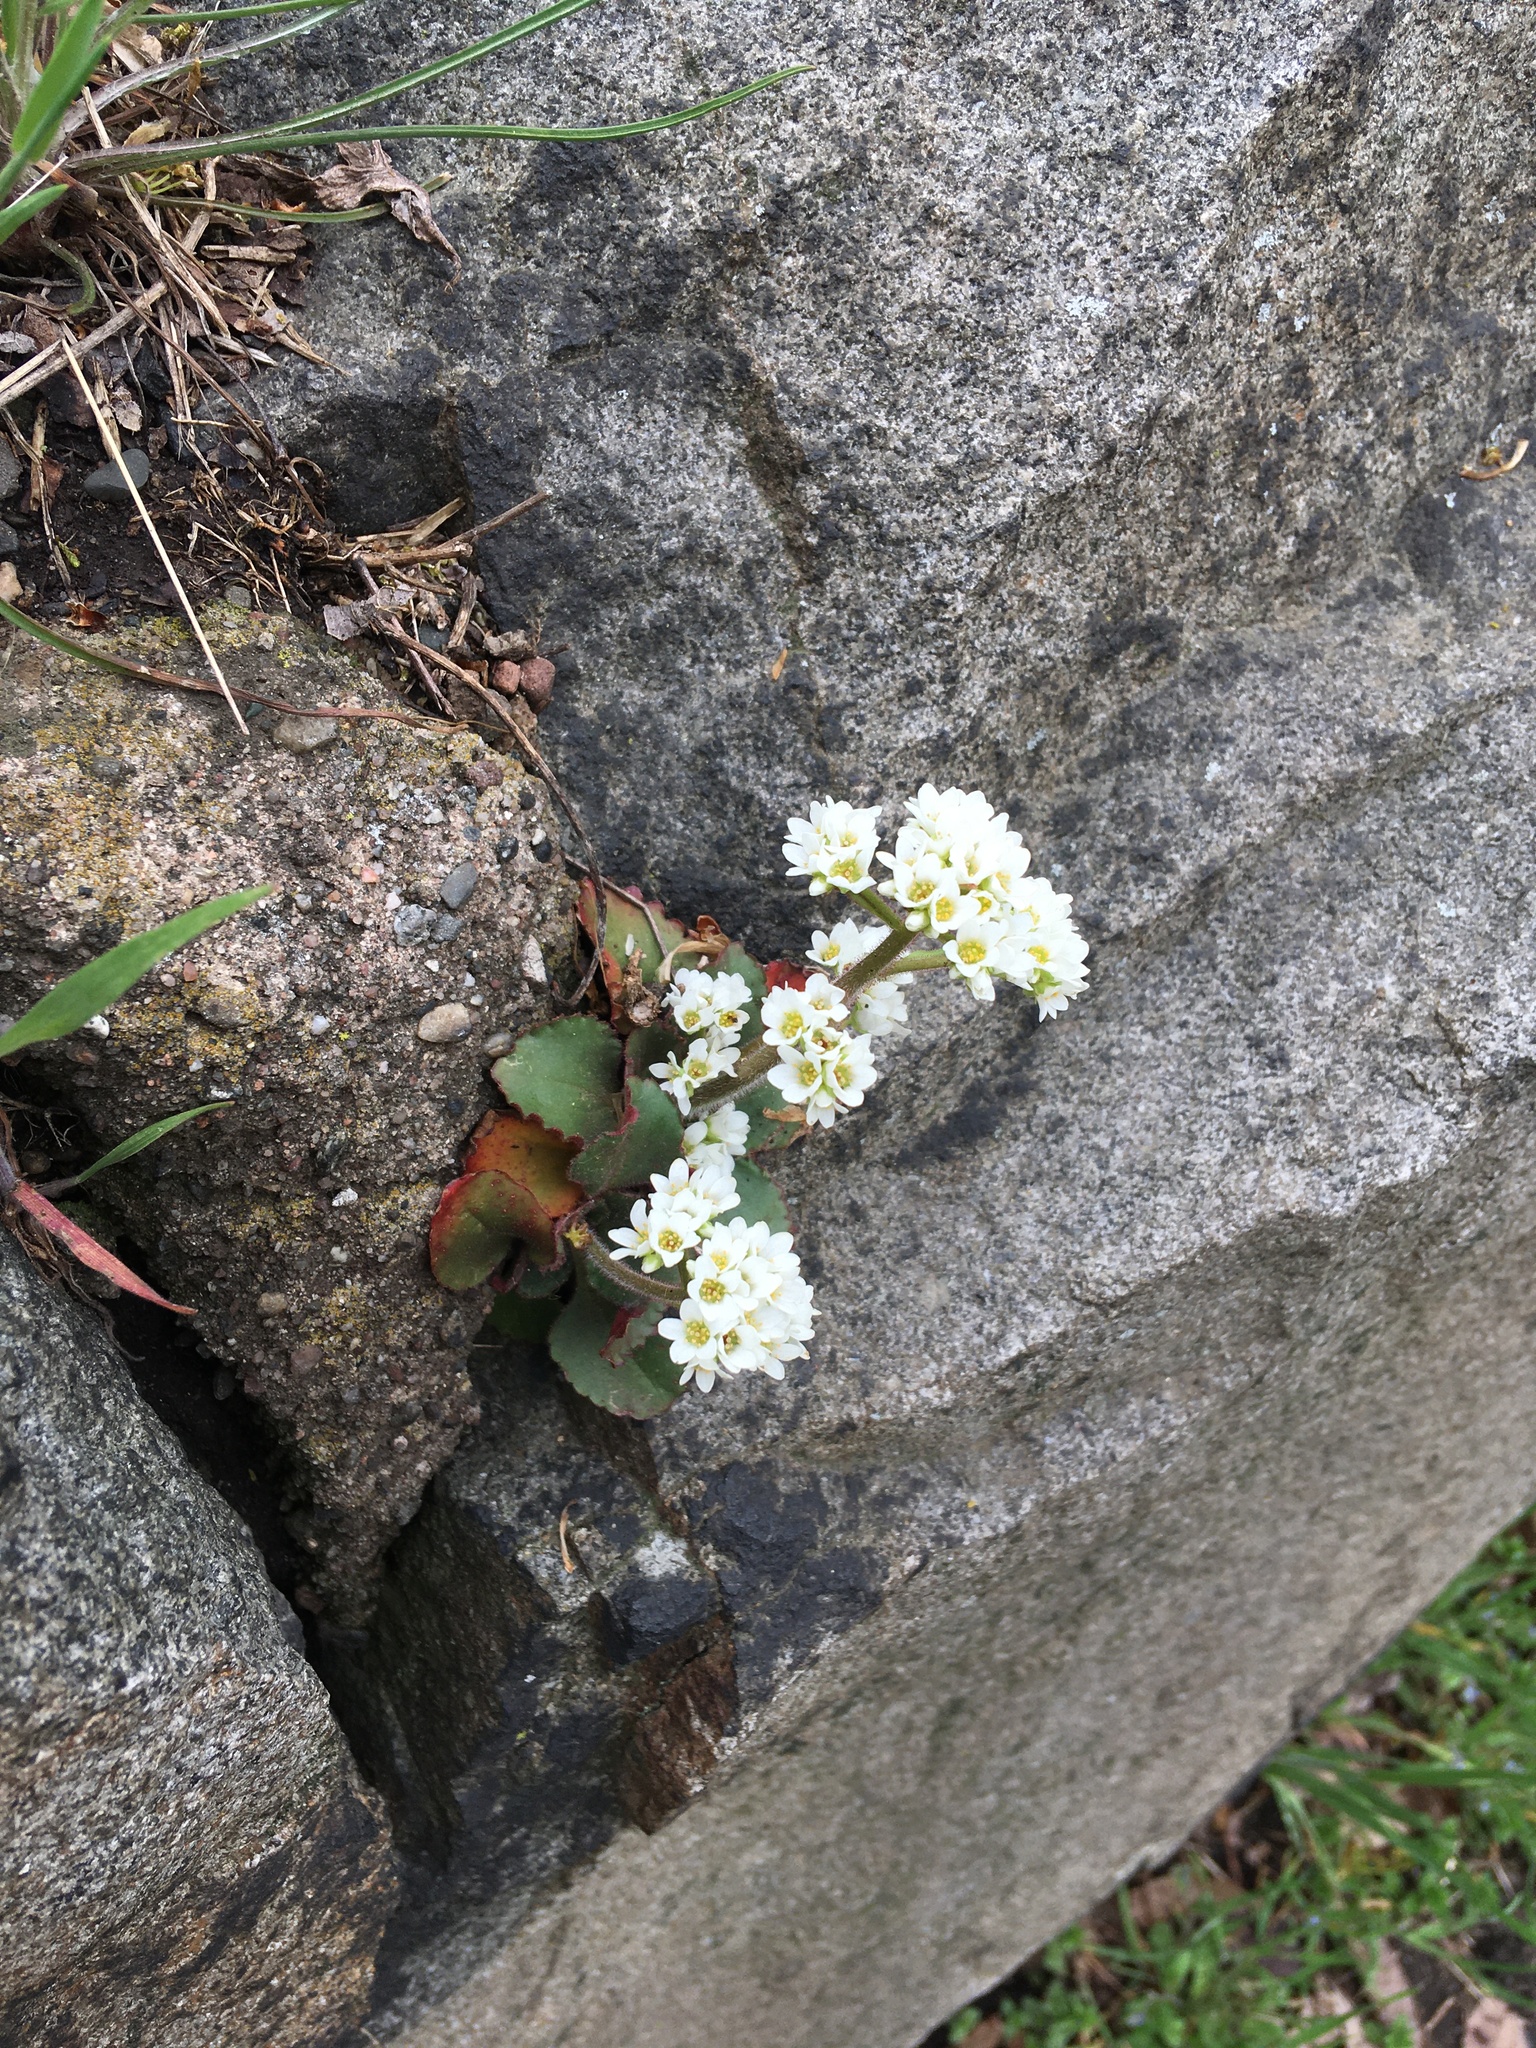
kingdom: Plantae
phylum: Tracheophyta
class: Magnoliopsida
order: Saxifragales
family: Saxifragaceae
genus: Micranthes
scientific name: Micranthes virginiensis
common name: Early saxifrage
